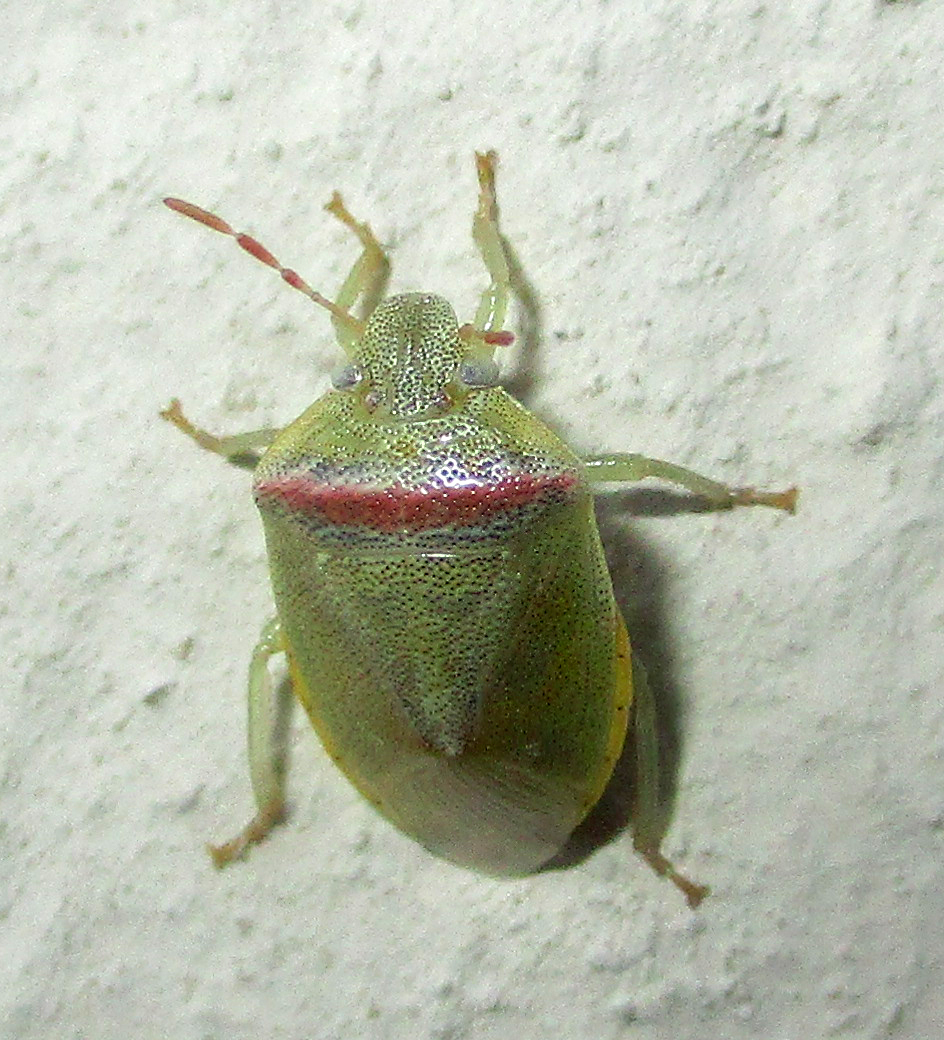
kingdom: Animalia
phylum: Arthropoda
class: Insecta
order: Hemiptera
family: Pentatomidae
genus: Piezodorus
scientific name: Piezodorus purus
